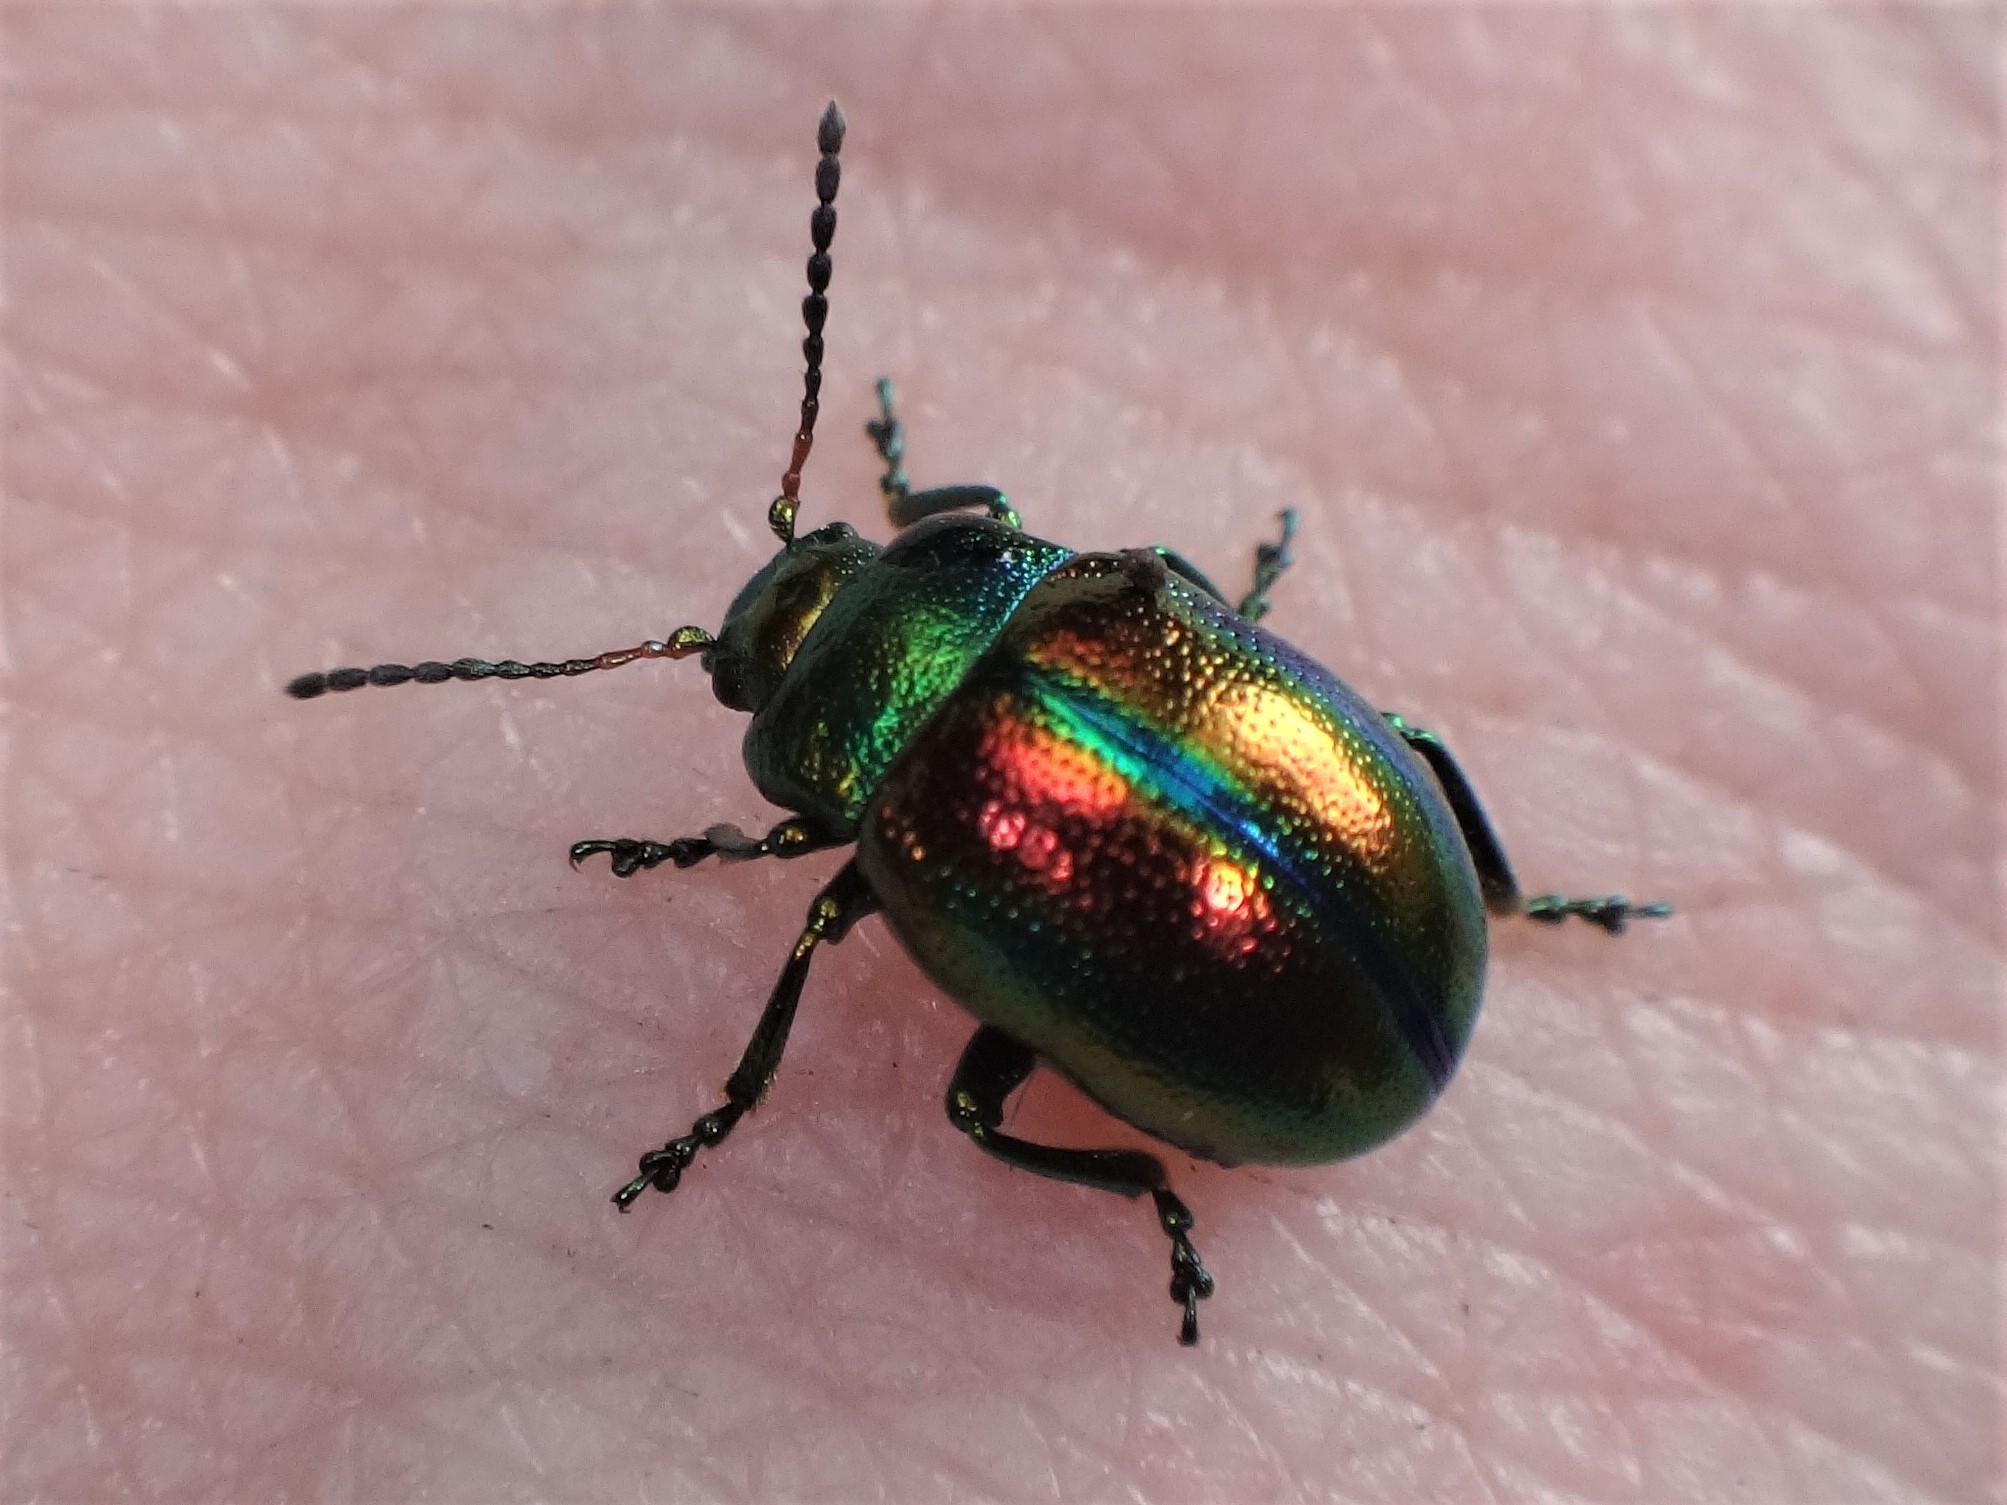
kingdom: Animalia
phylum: Arthropoda
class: Insecta
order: Coleoptera
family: Chrysomelidae
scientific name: Chrysomelidae
